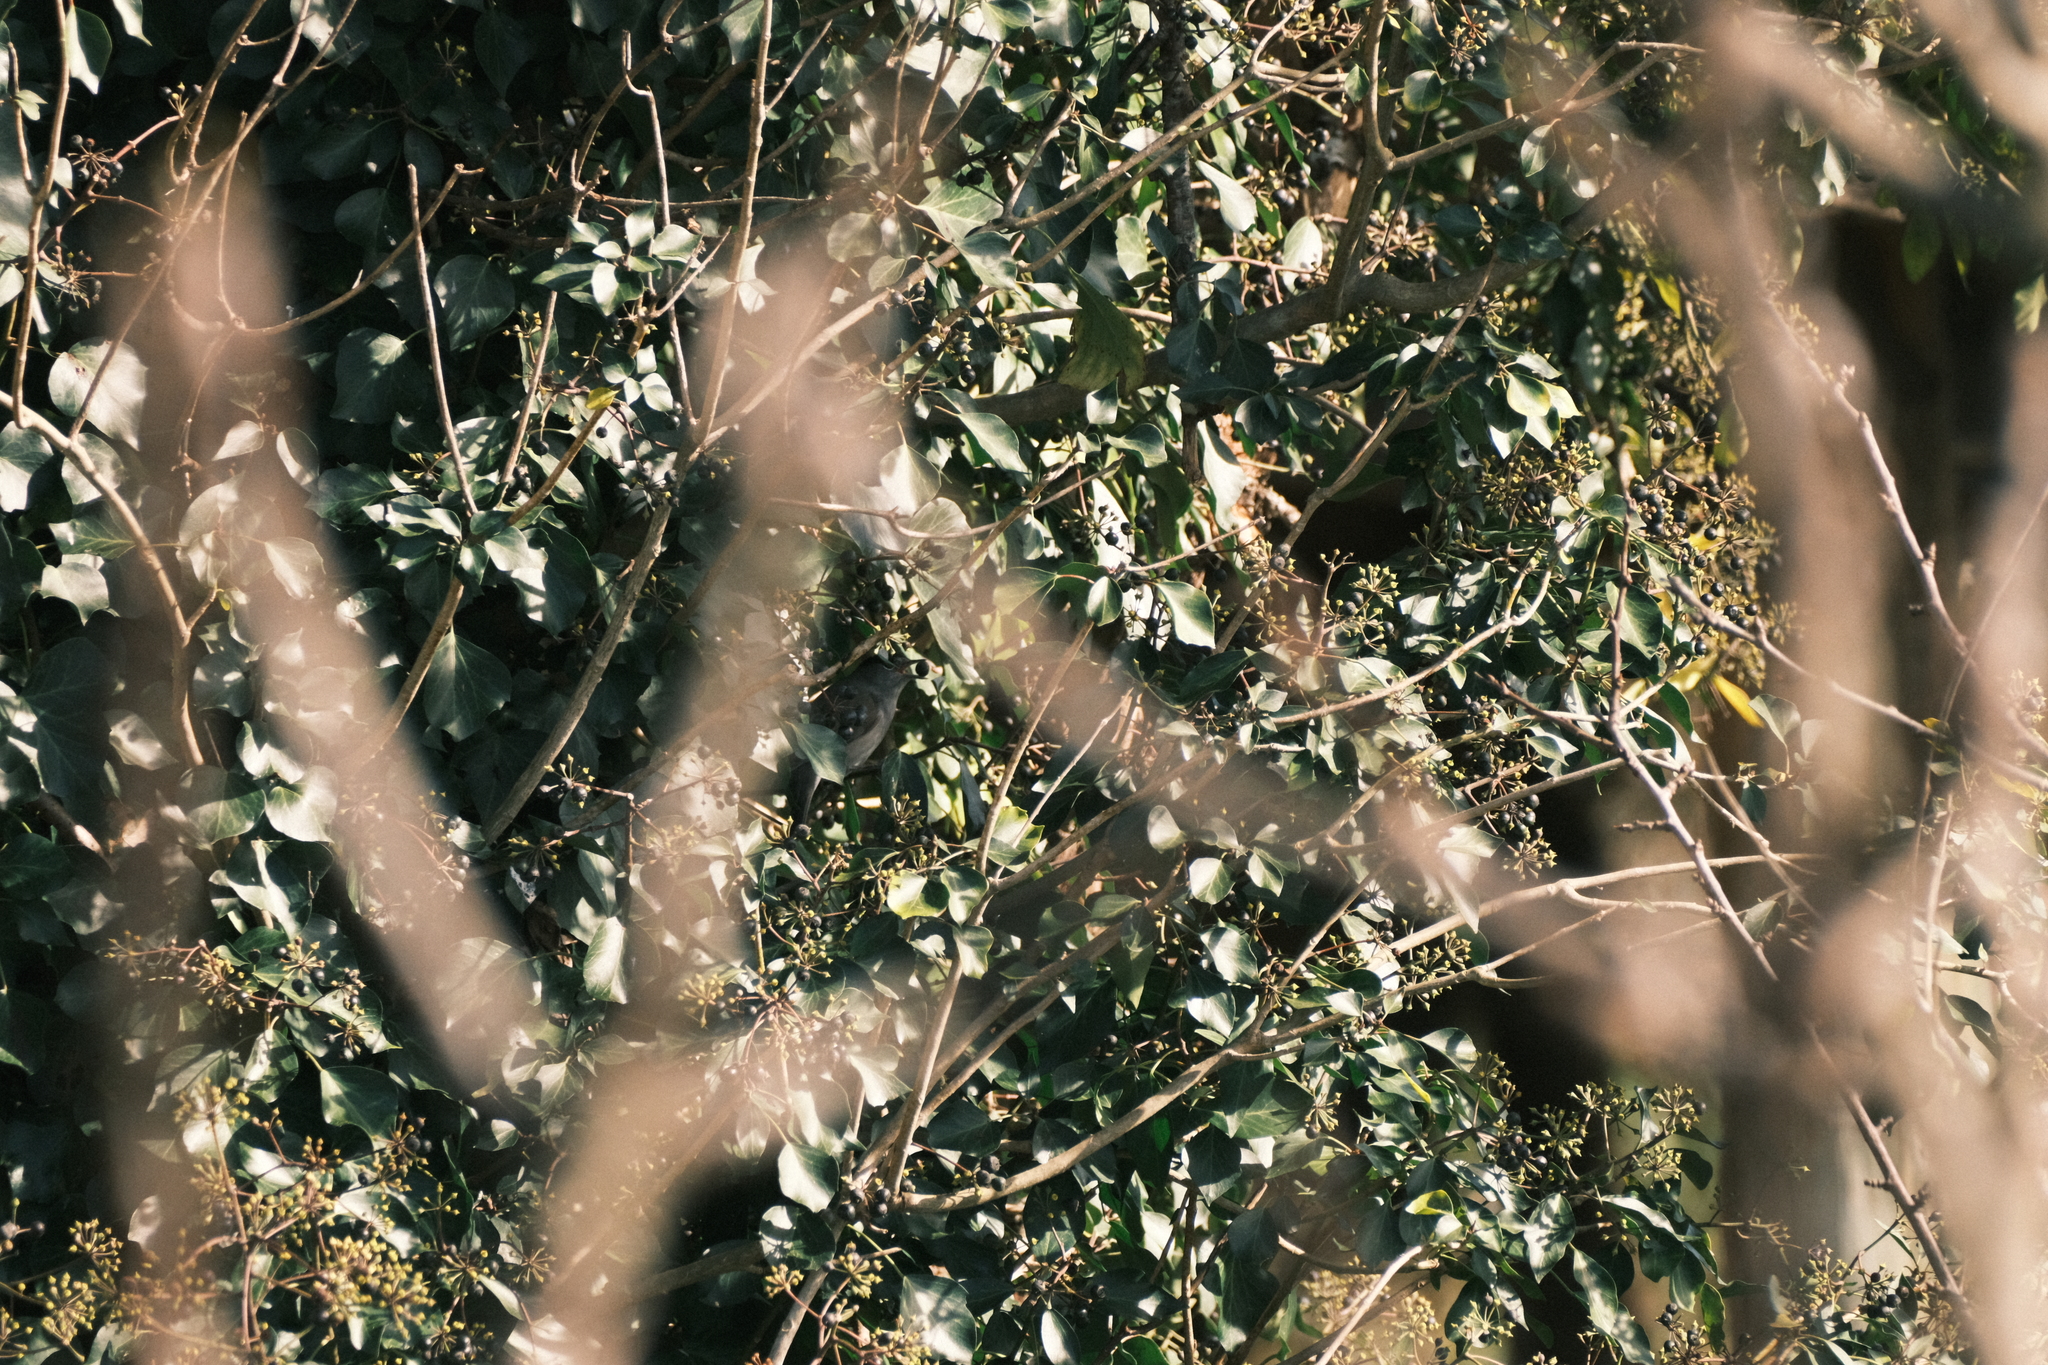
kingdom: Animalia
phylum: Chordata
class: Aves
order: Passeriformes
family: Sylviidae
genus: Sylvia
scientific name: Sylvia atricapilla
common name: Eurasian blackcap
